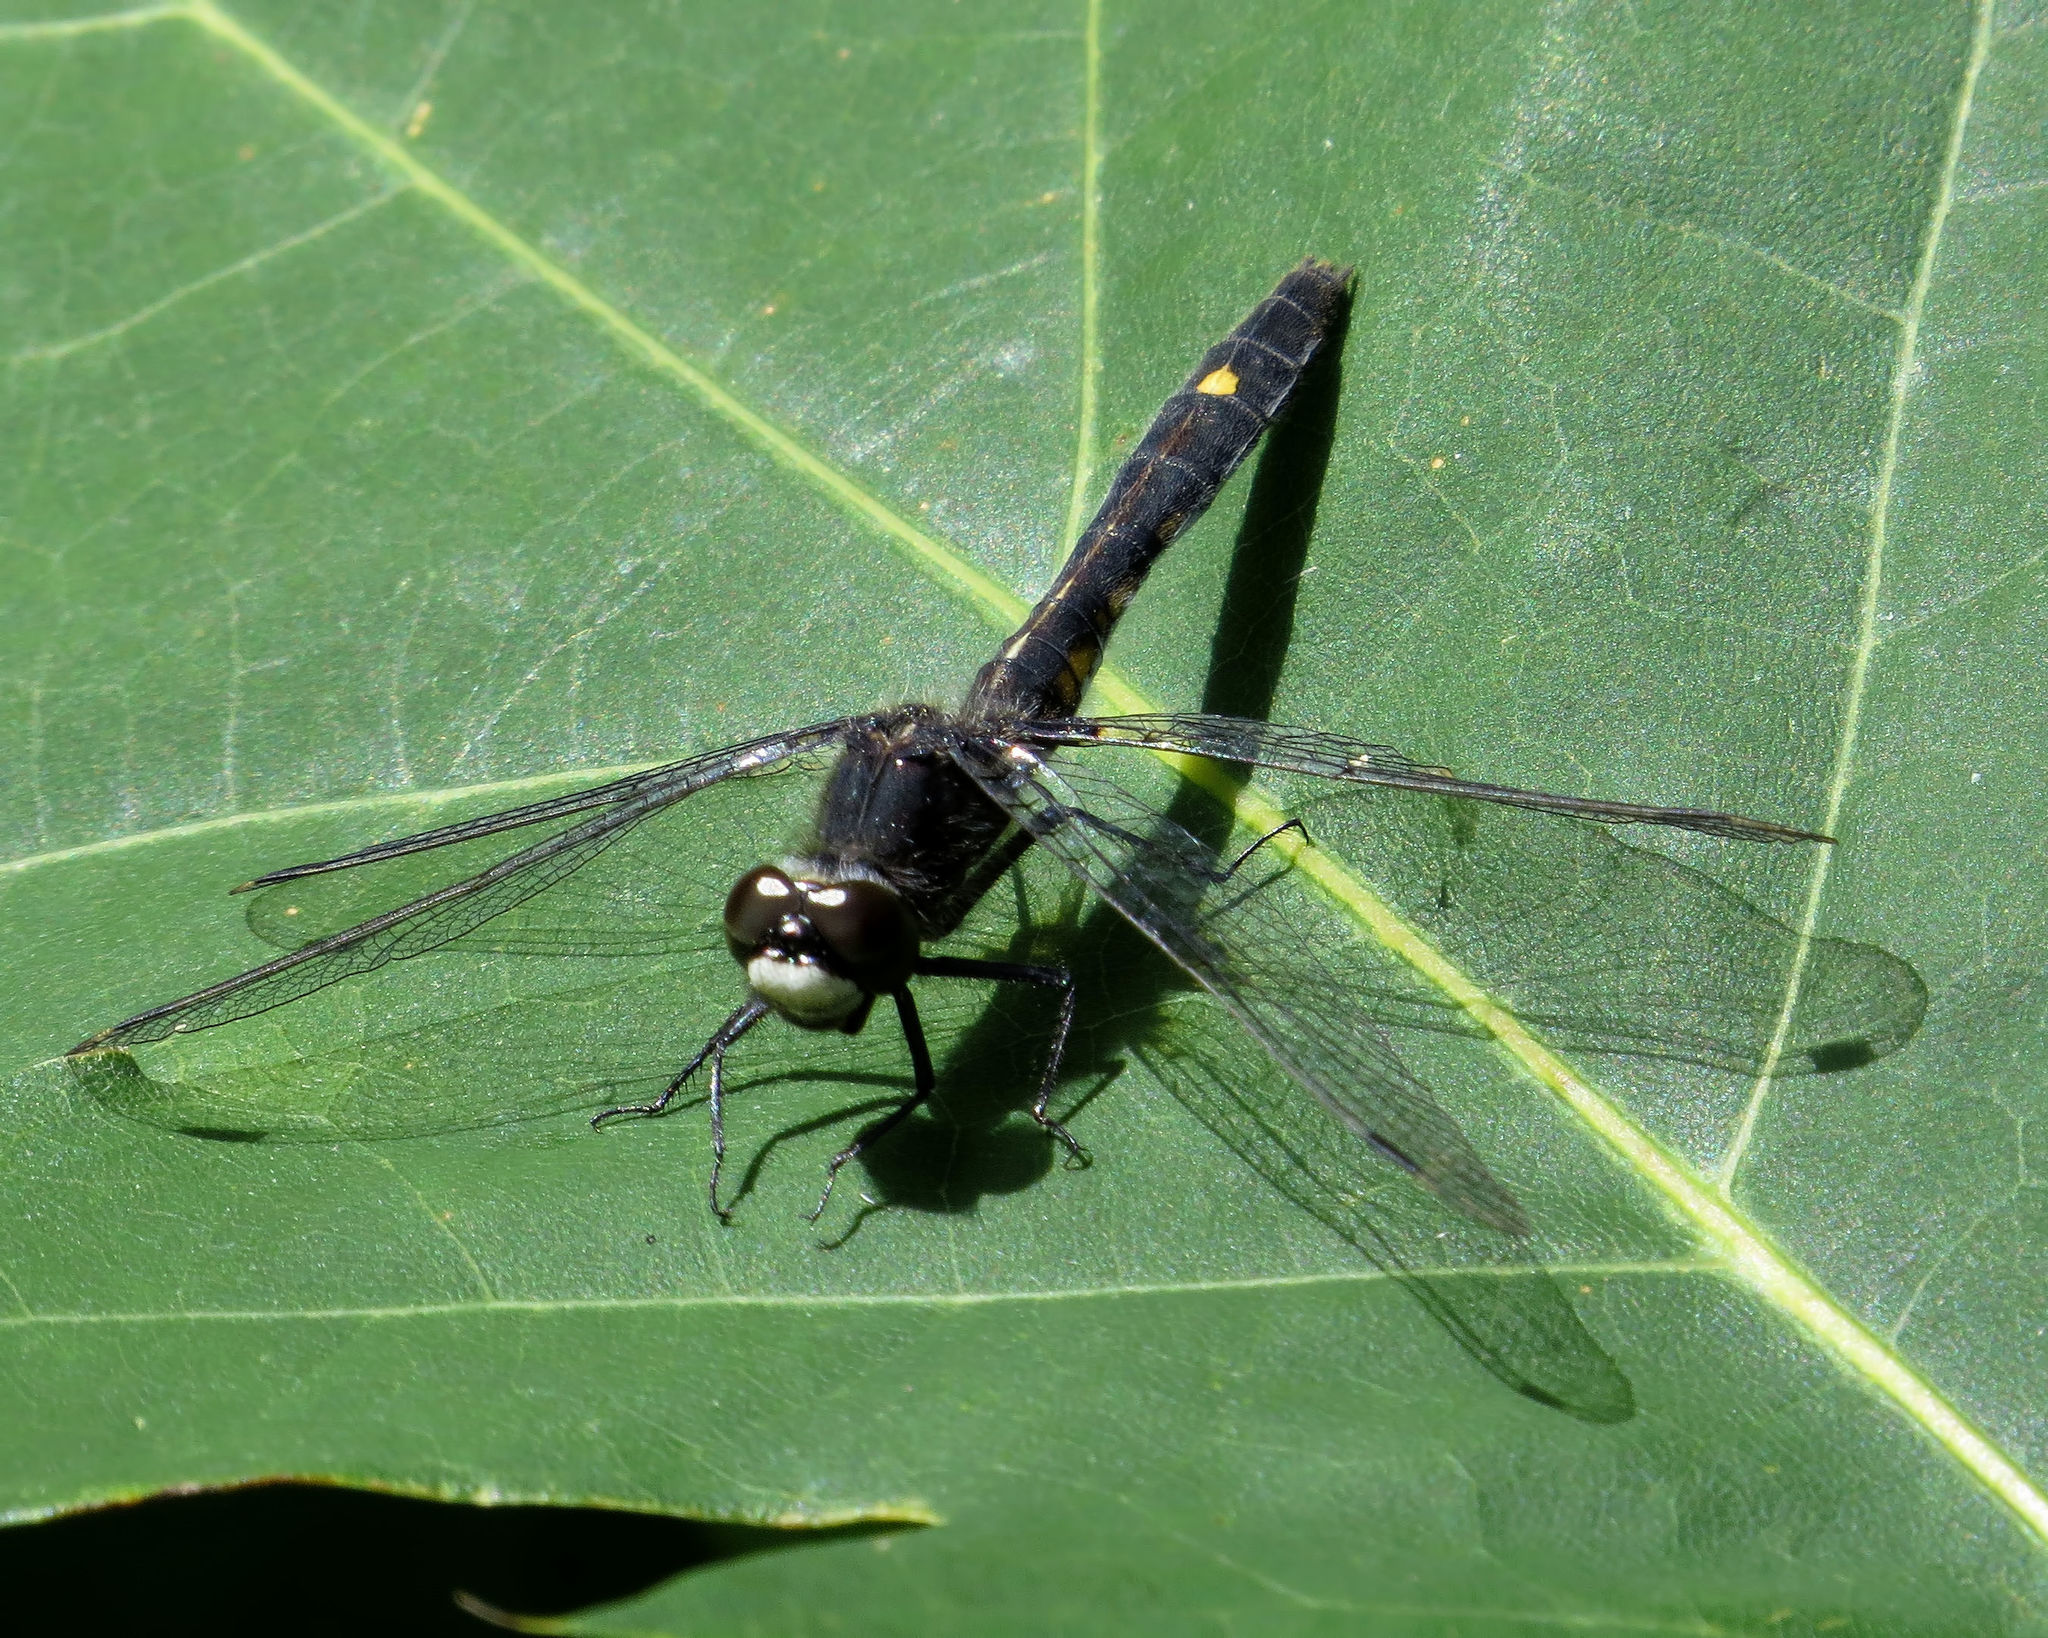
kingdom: Animalia
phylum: Arthropoda
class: Insecta
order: Odonata
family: Libellulidae
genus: Leucorrhinia
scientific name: Leucorrhinia intacta
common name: Dot-tailed whiteface
